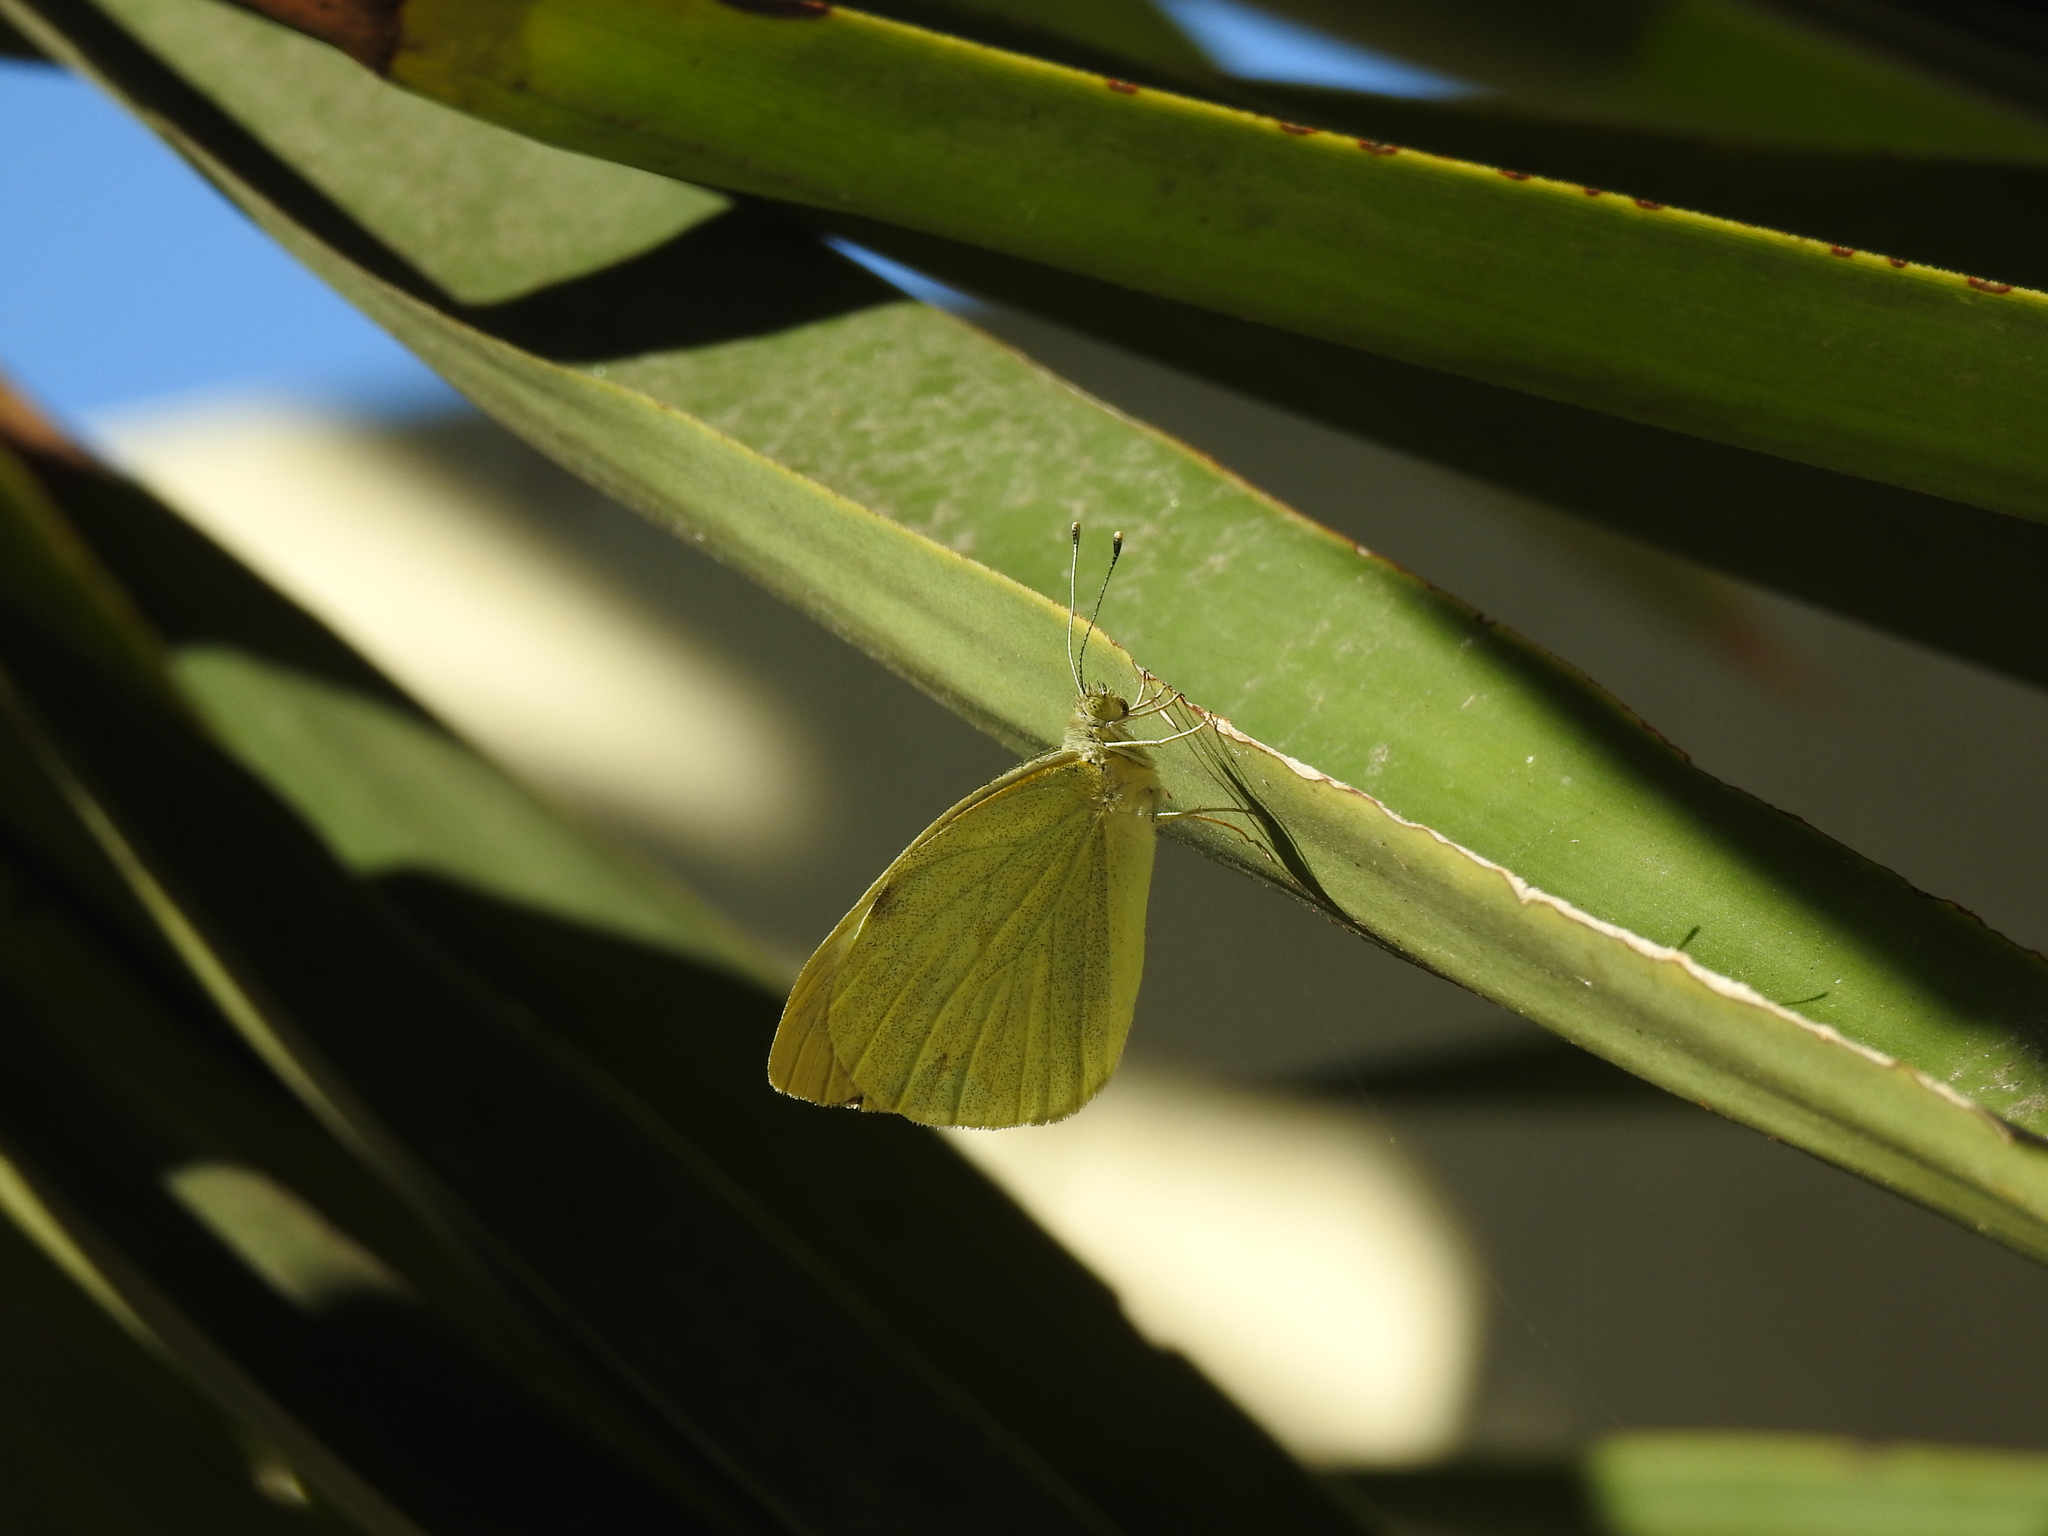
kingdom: Animalia
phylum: Arthropoda
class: Insecta
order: Lepidoptera
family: Pieridae
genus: Pieris
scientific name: Pieris brassicae
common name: Large white
